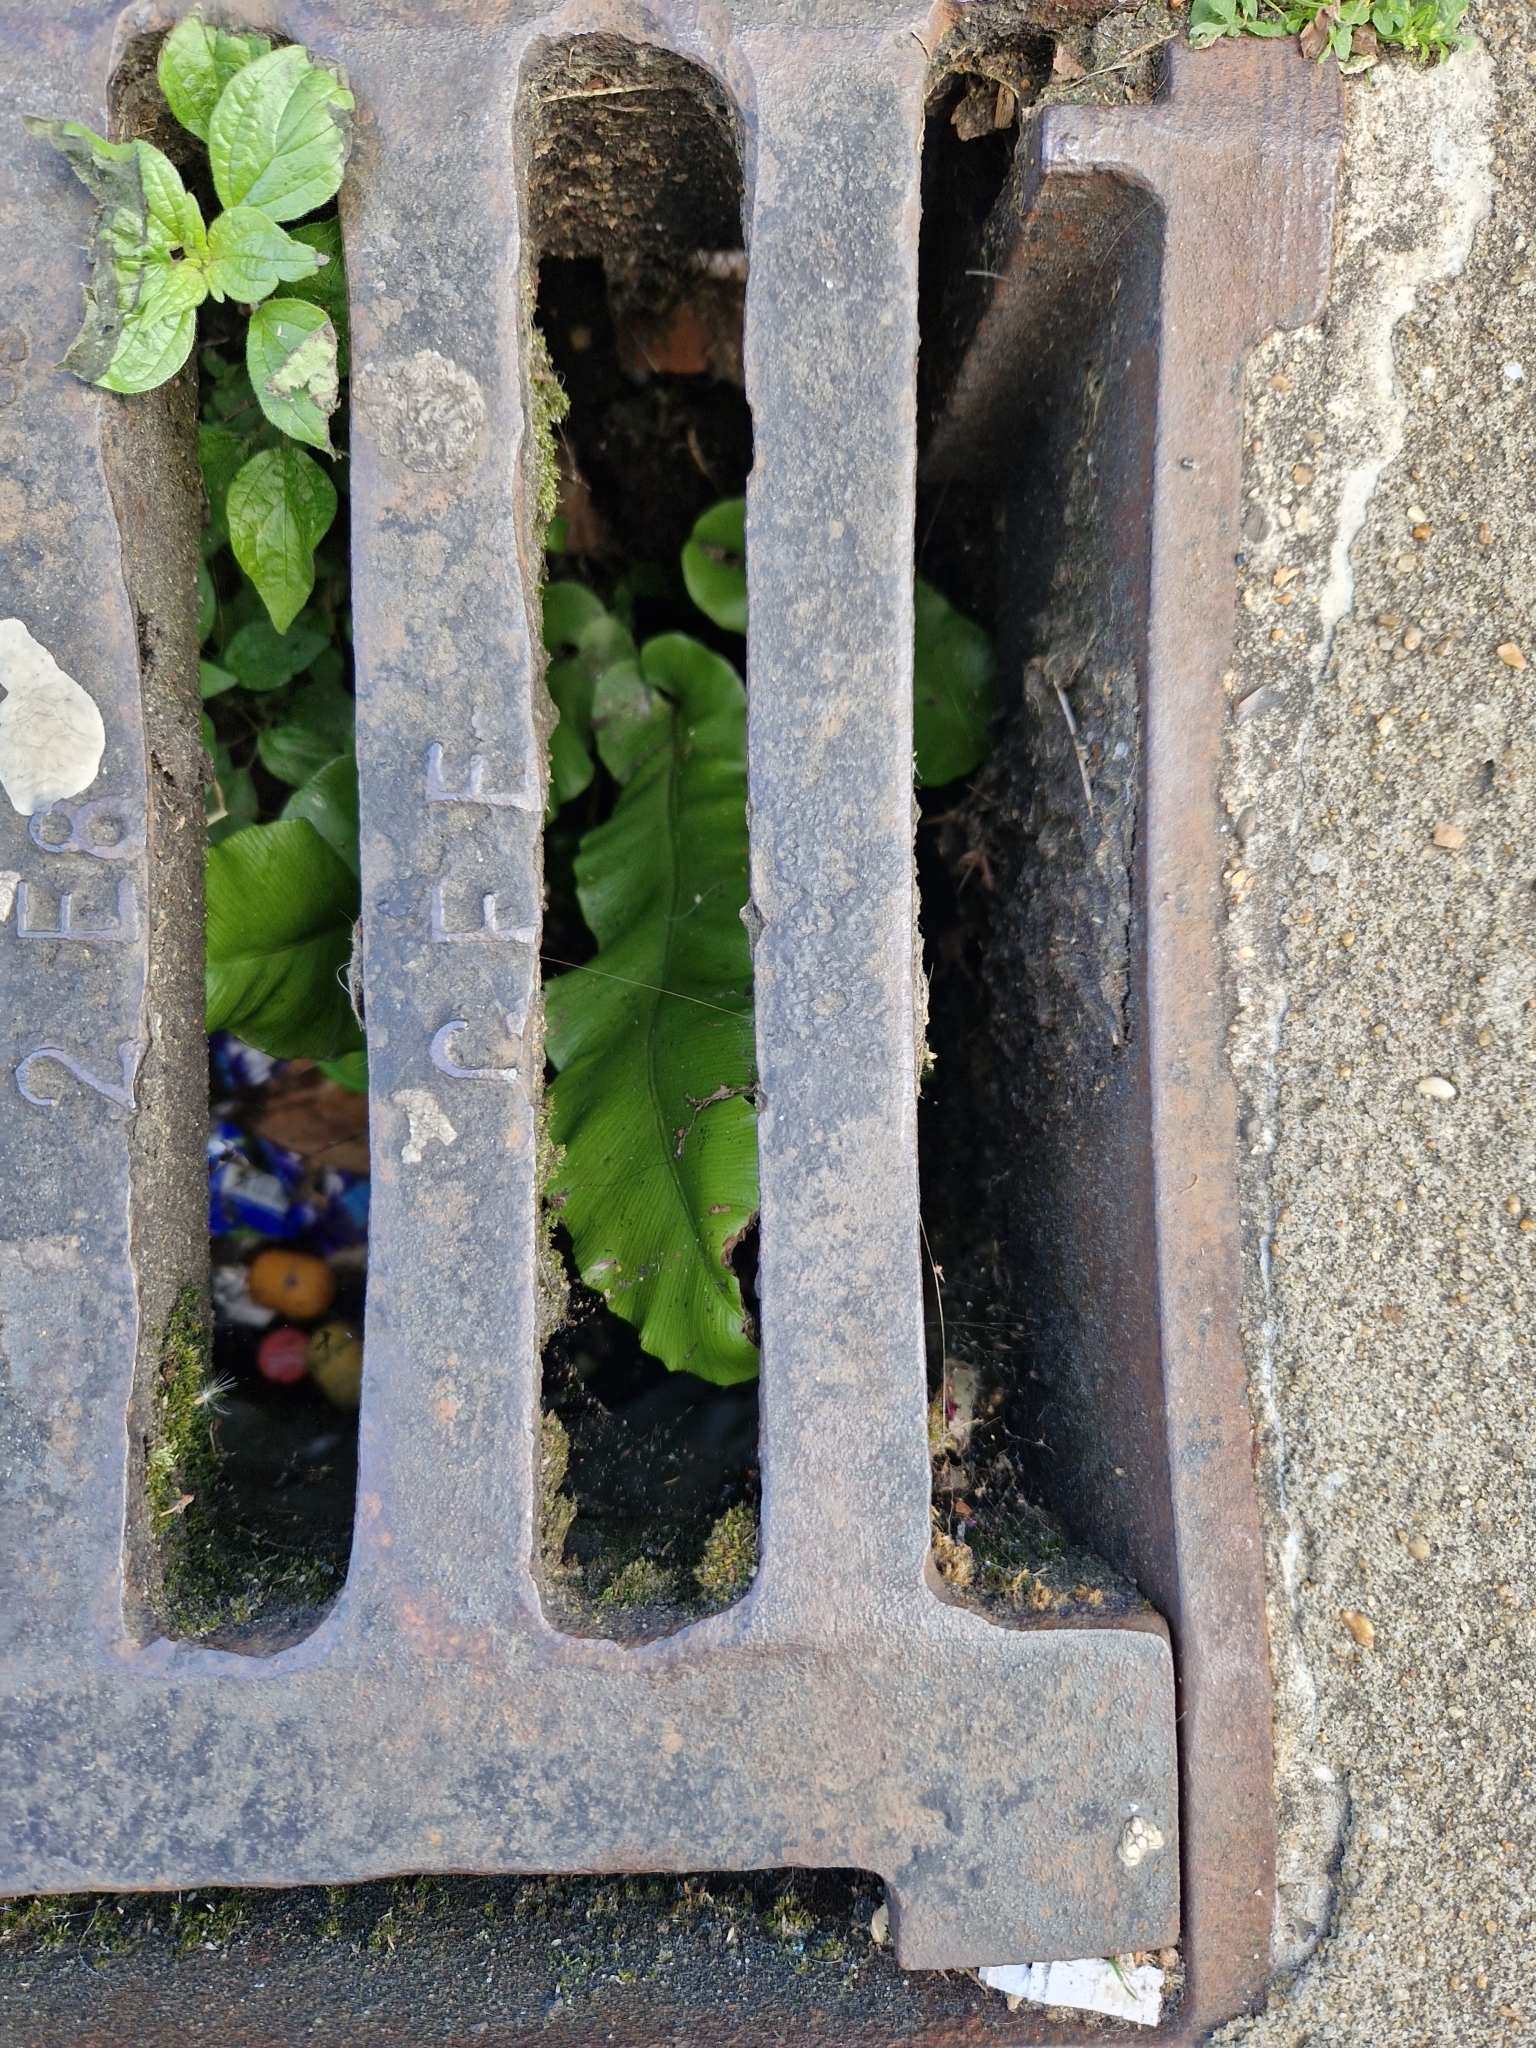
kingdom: Plantae
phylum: Tracheophyta
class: Polypodiopsida
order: Polypodiales
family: Aspleniaceae
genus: Asplenium
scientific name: Asplenium scolopendrium
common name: Hart's-tongue fern
